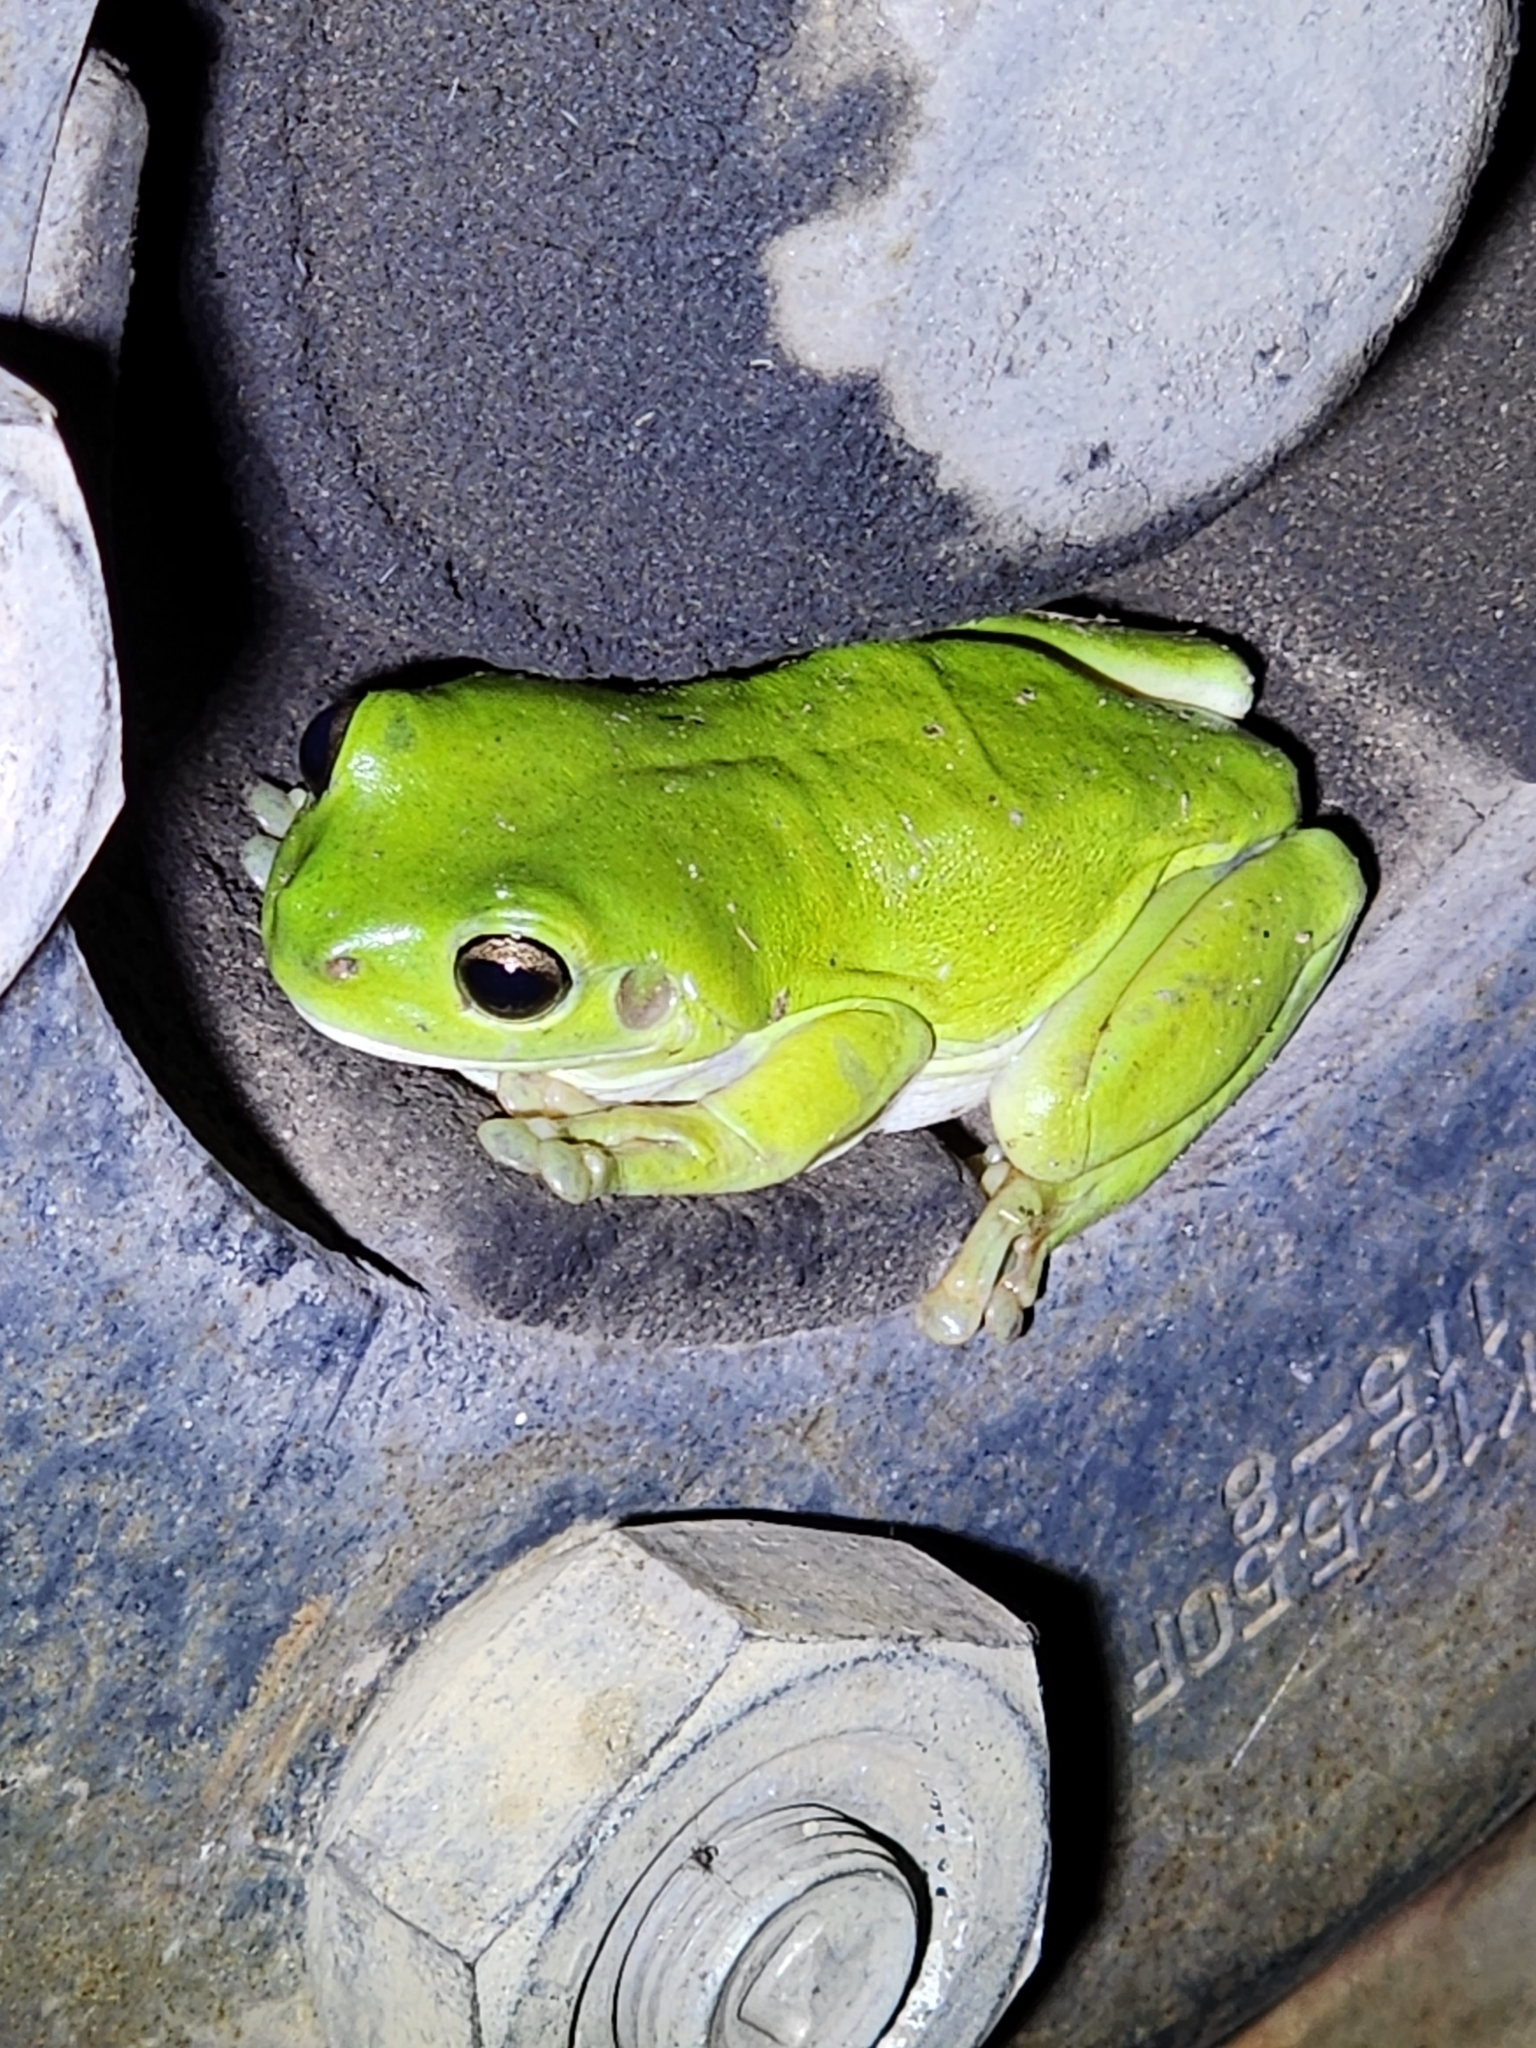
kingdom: Animalia
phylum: Chordata
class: Amphibia
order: Anura
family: Pelodryadidae
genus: Ranoidea
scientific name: Ranoidea caerulea
